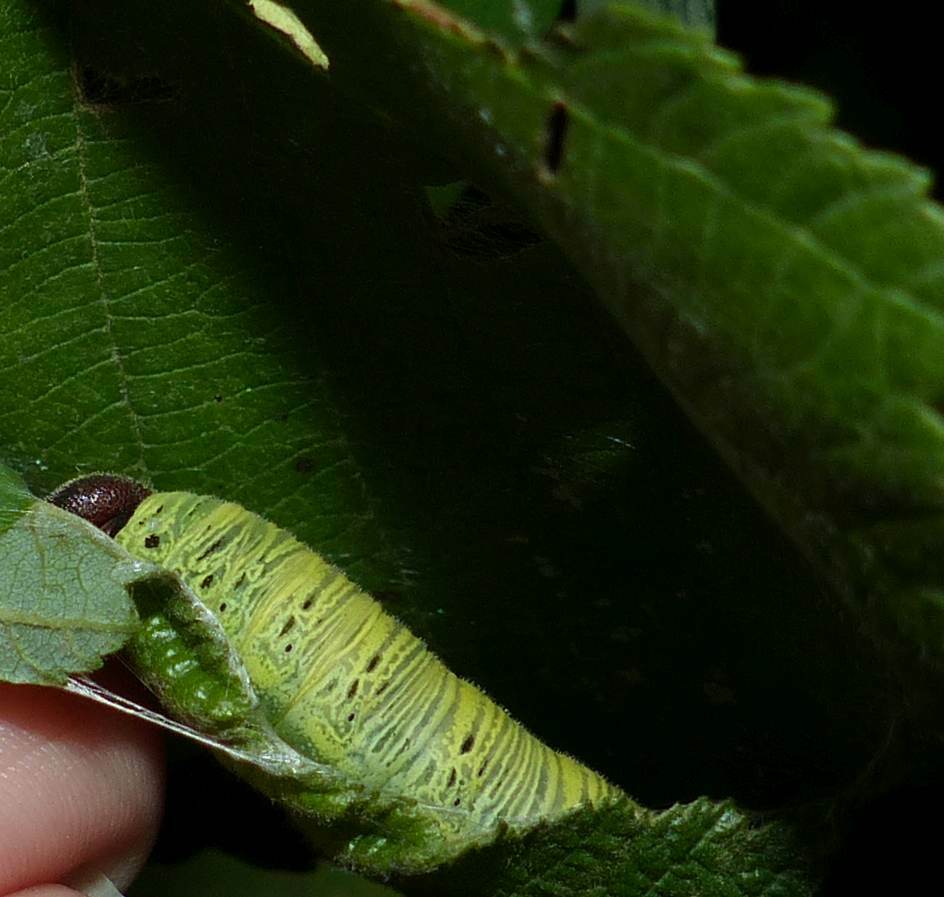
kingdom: Animalia
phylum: Arthropoda
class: Insecta
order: Lepidoptera
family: Hesperiidae
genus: Epargyreus
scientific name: Epargyreus clarus
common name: Silver-spotted skipper
